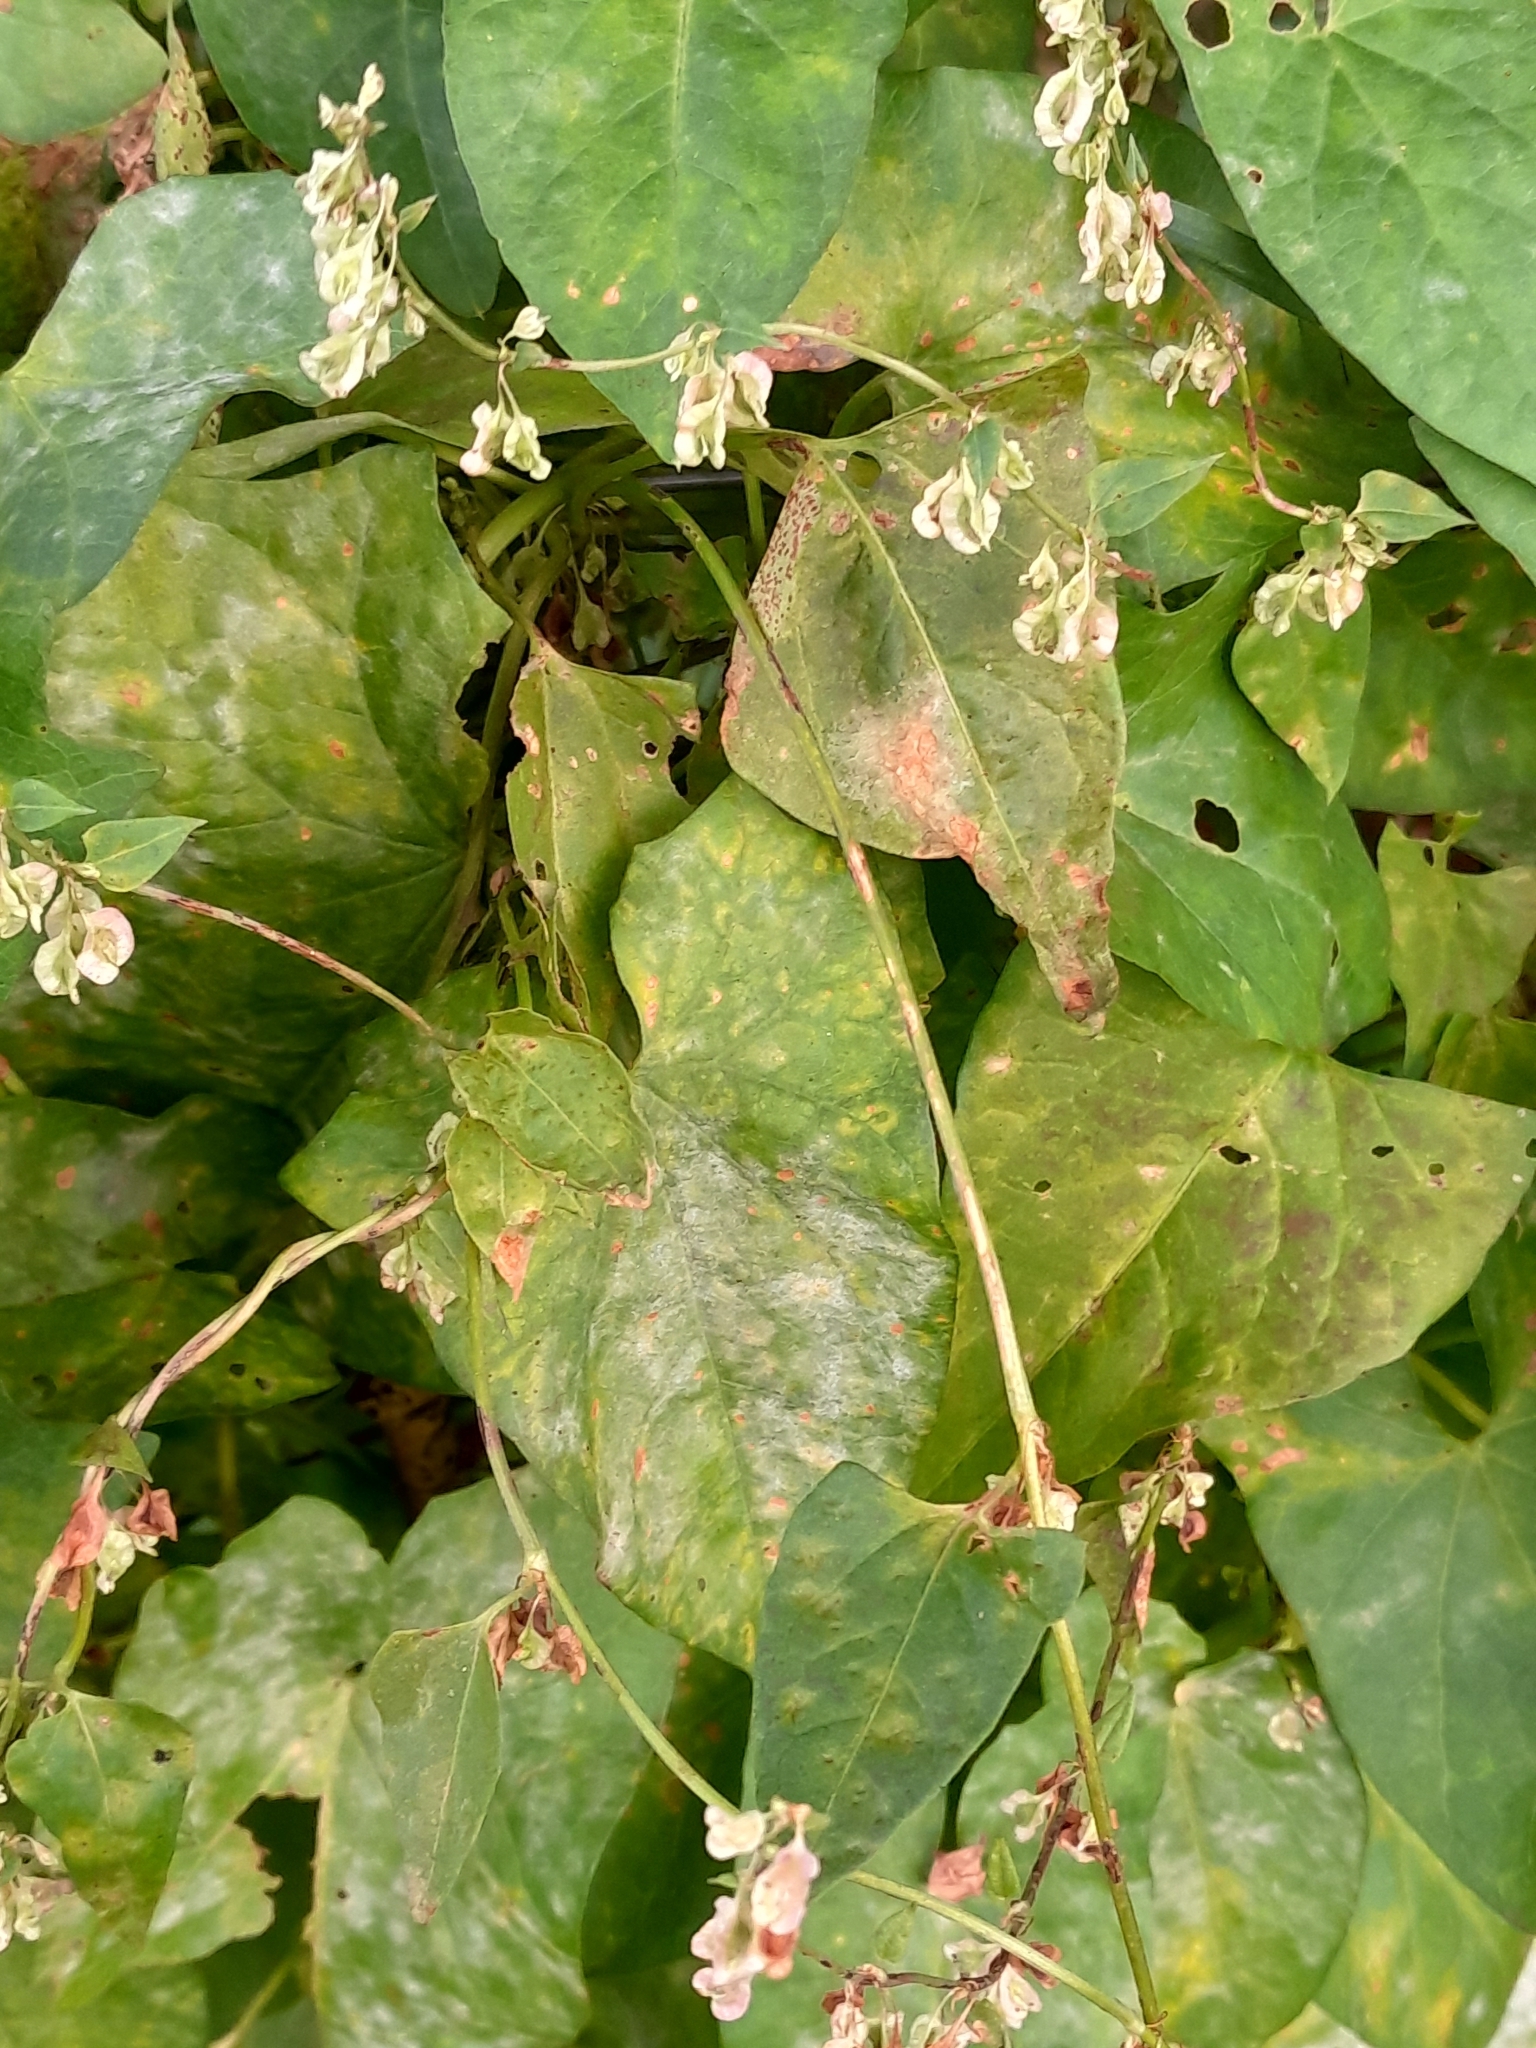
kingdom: Plantae
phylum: Tracheophyta
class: Magnoliopsida
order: Caryophyllales
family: Polygonaceae
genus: Fallopia
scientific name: Fallopia dumetorum
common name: Copse-bindweed
